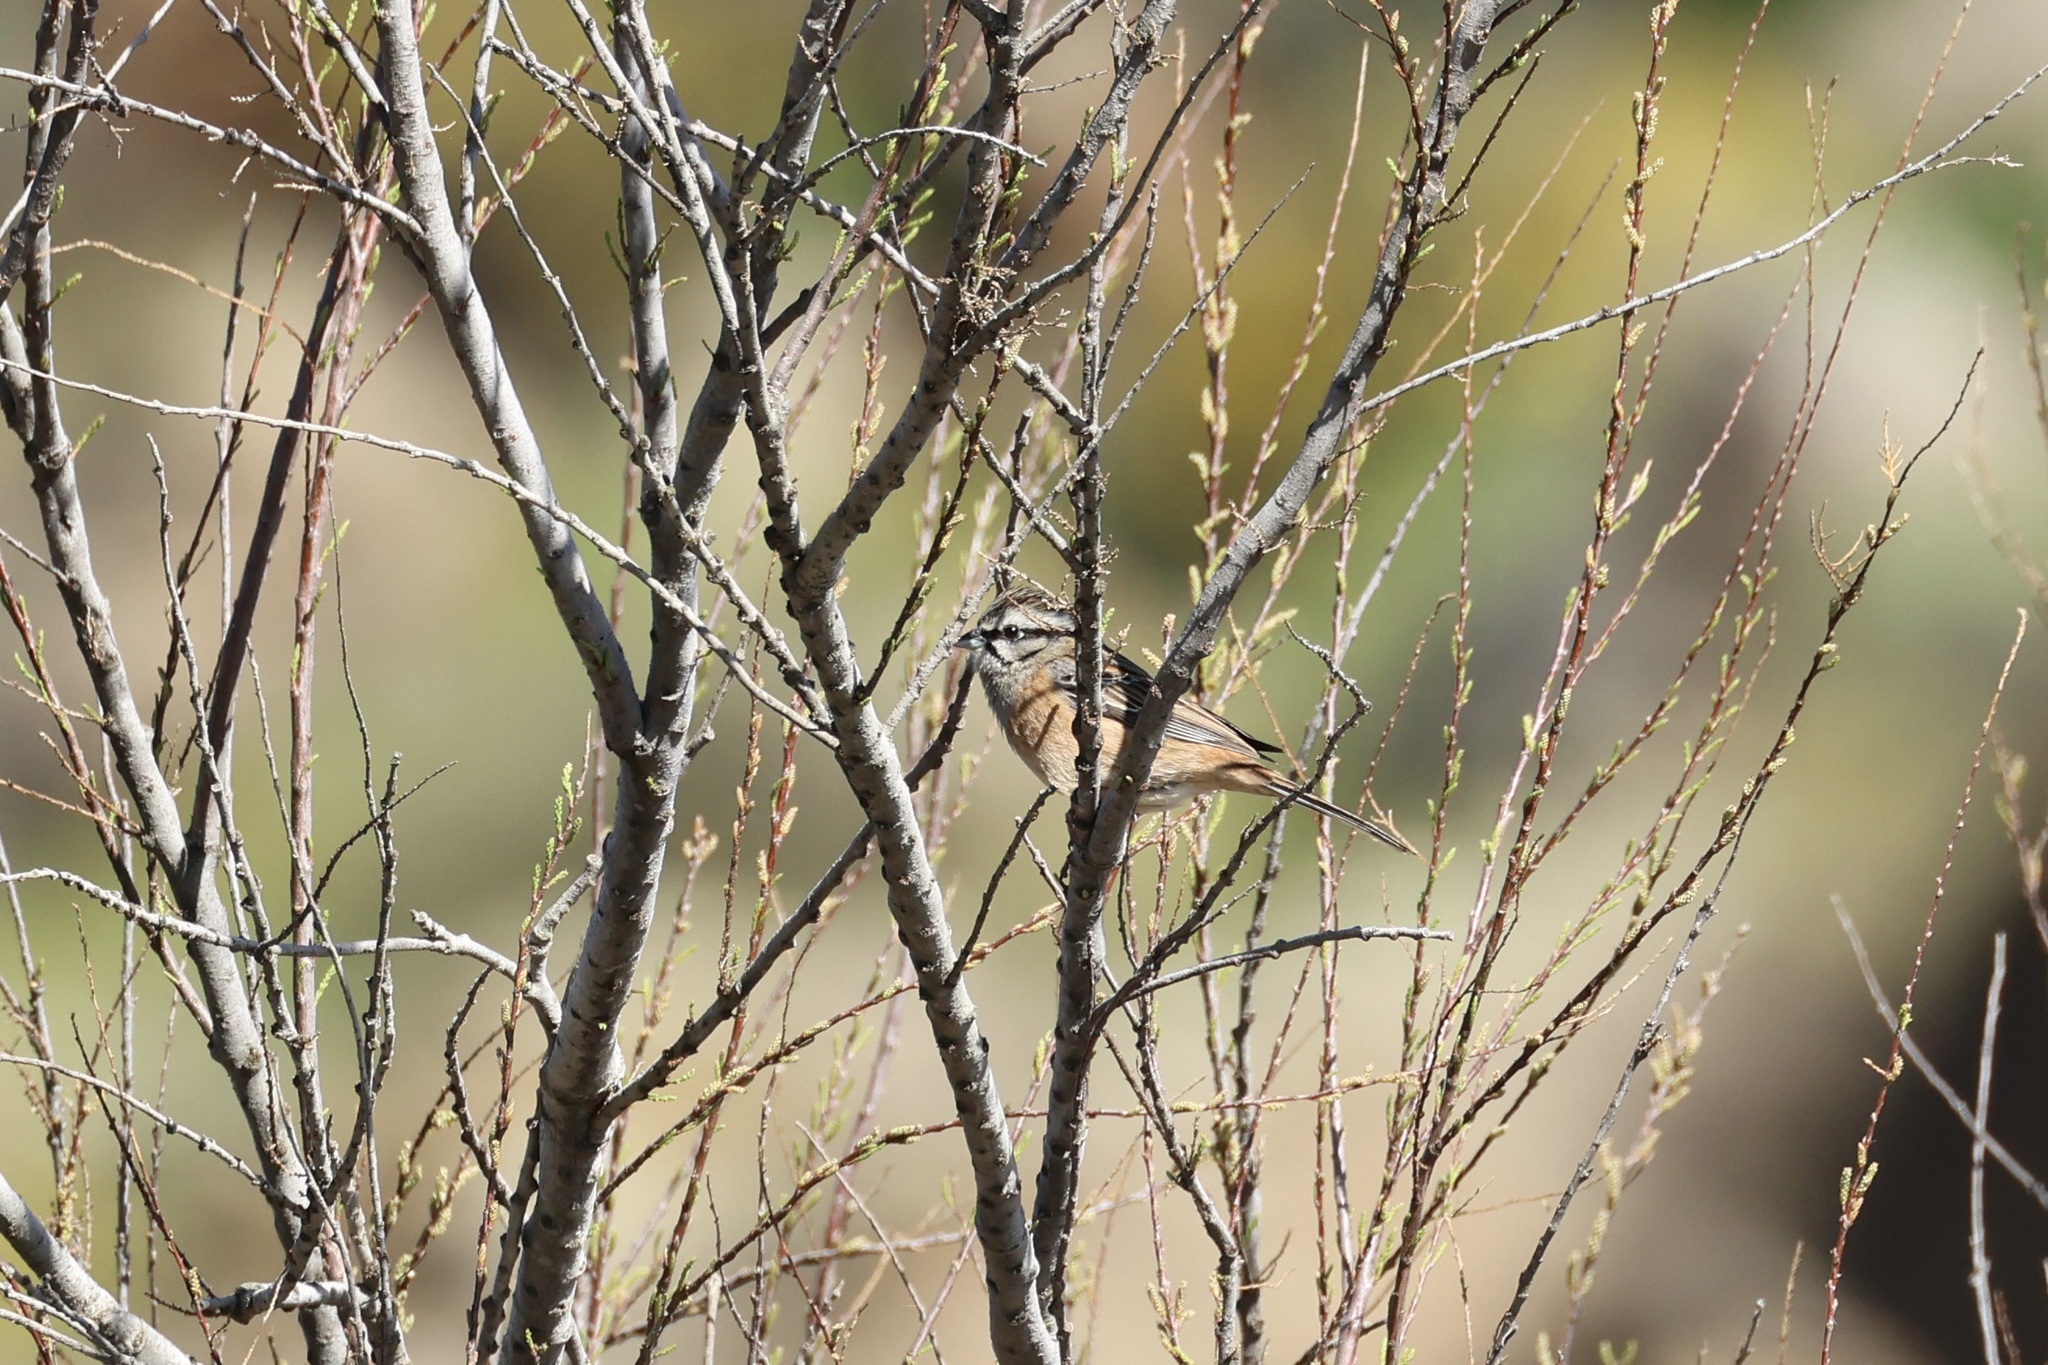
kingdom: Animalia
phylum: Chordata
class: Aves
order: Passeriformes
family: Emberizidae
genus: Emberiza
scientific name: Emberiza cia
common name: Rock bunting
